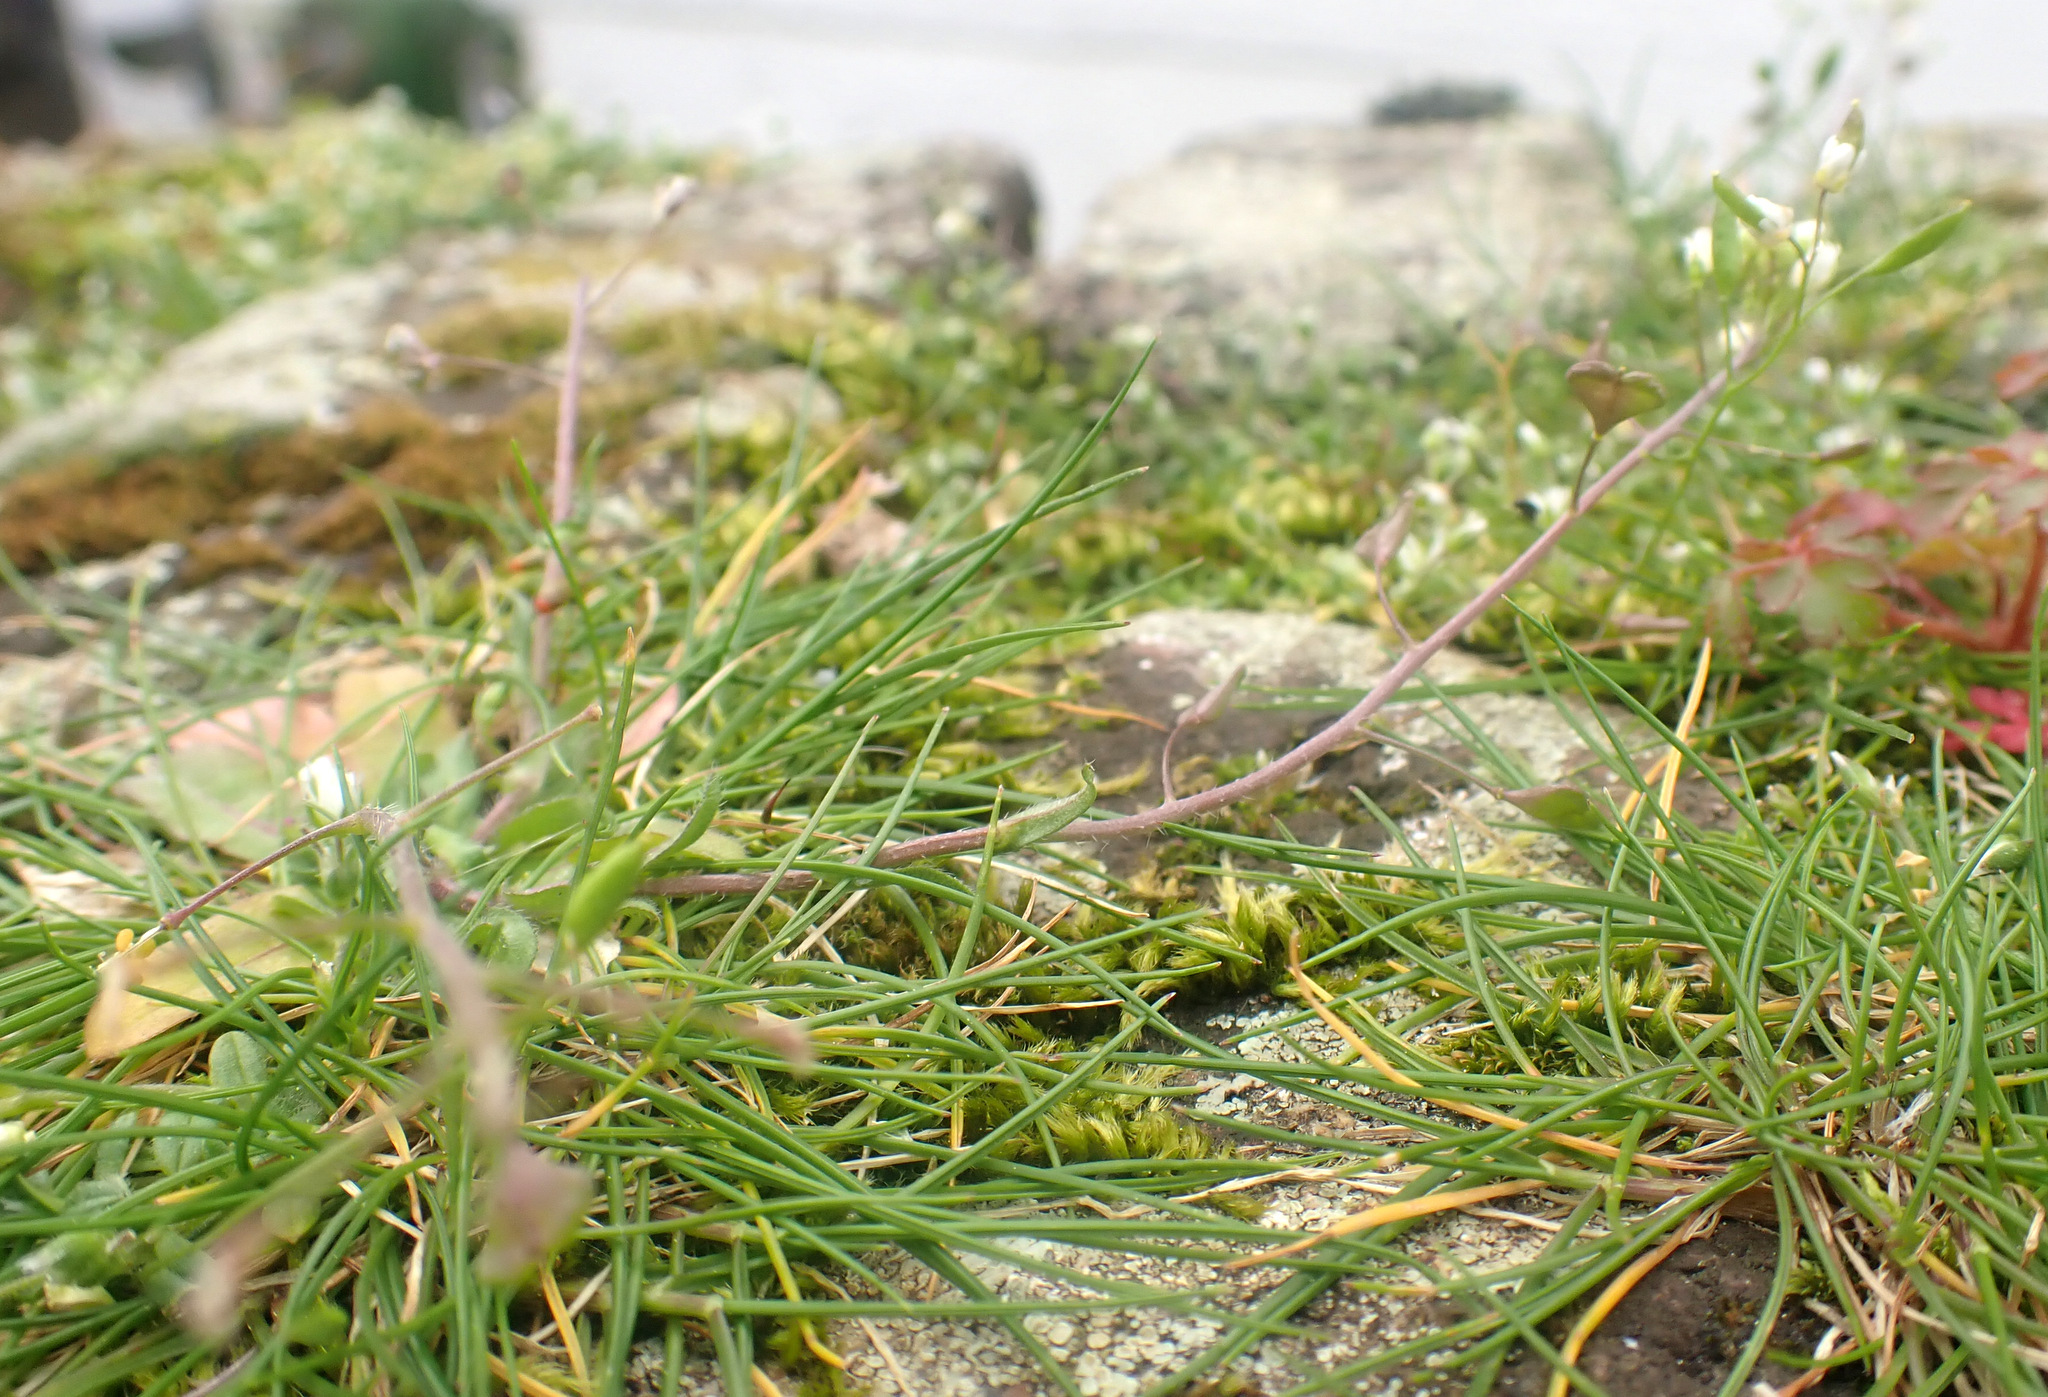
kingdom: Plantae
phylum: Tracheophyta
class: Magnoliopsida
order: Brassicales
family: Brassicaceae
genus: Capsella
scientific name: Capsella rubella
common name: Pink shepherd's-purse
